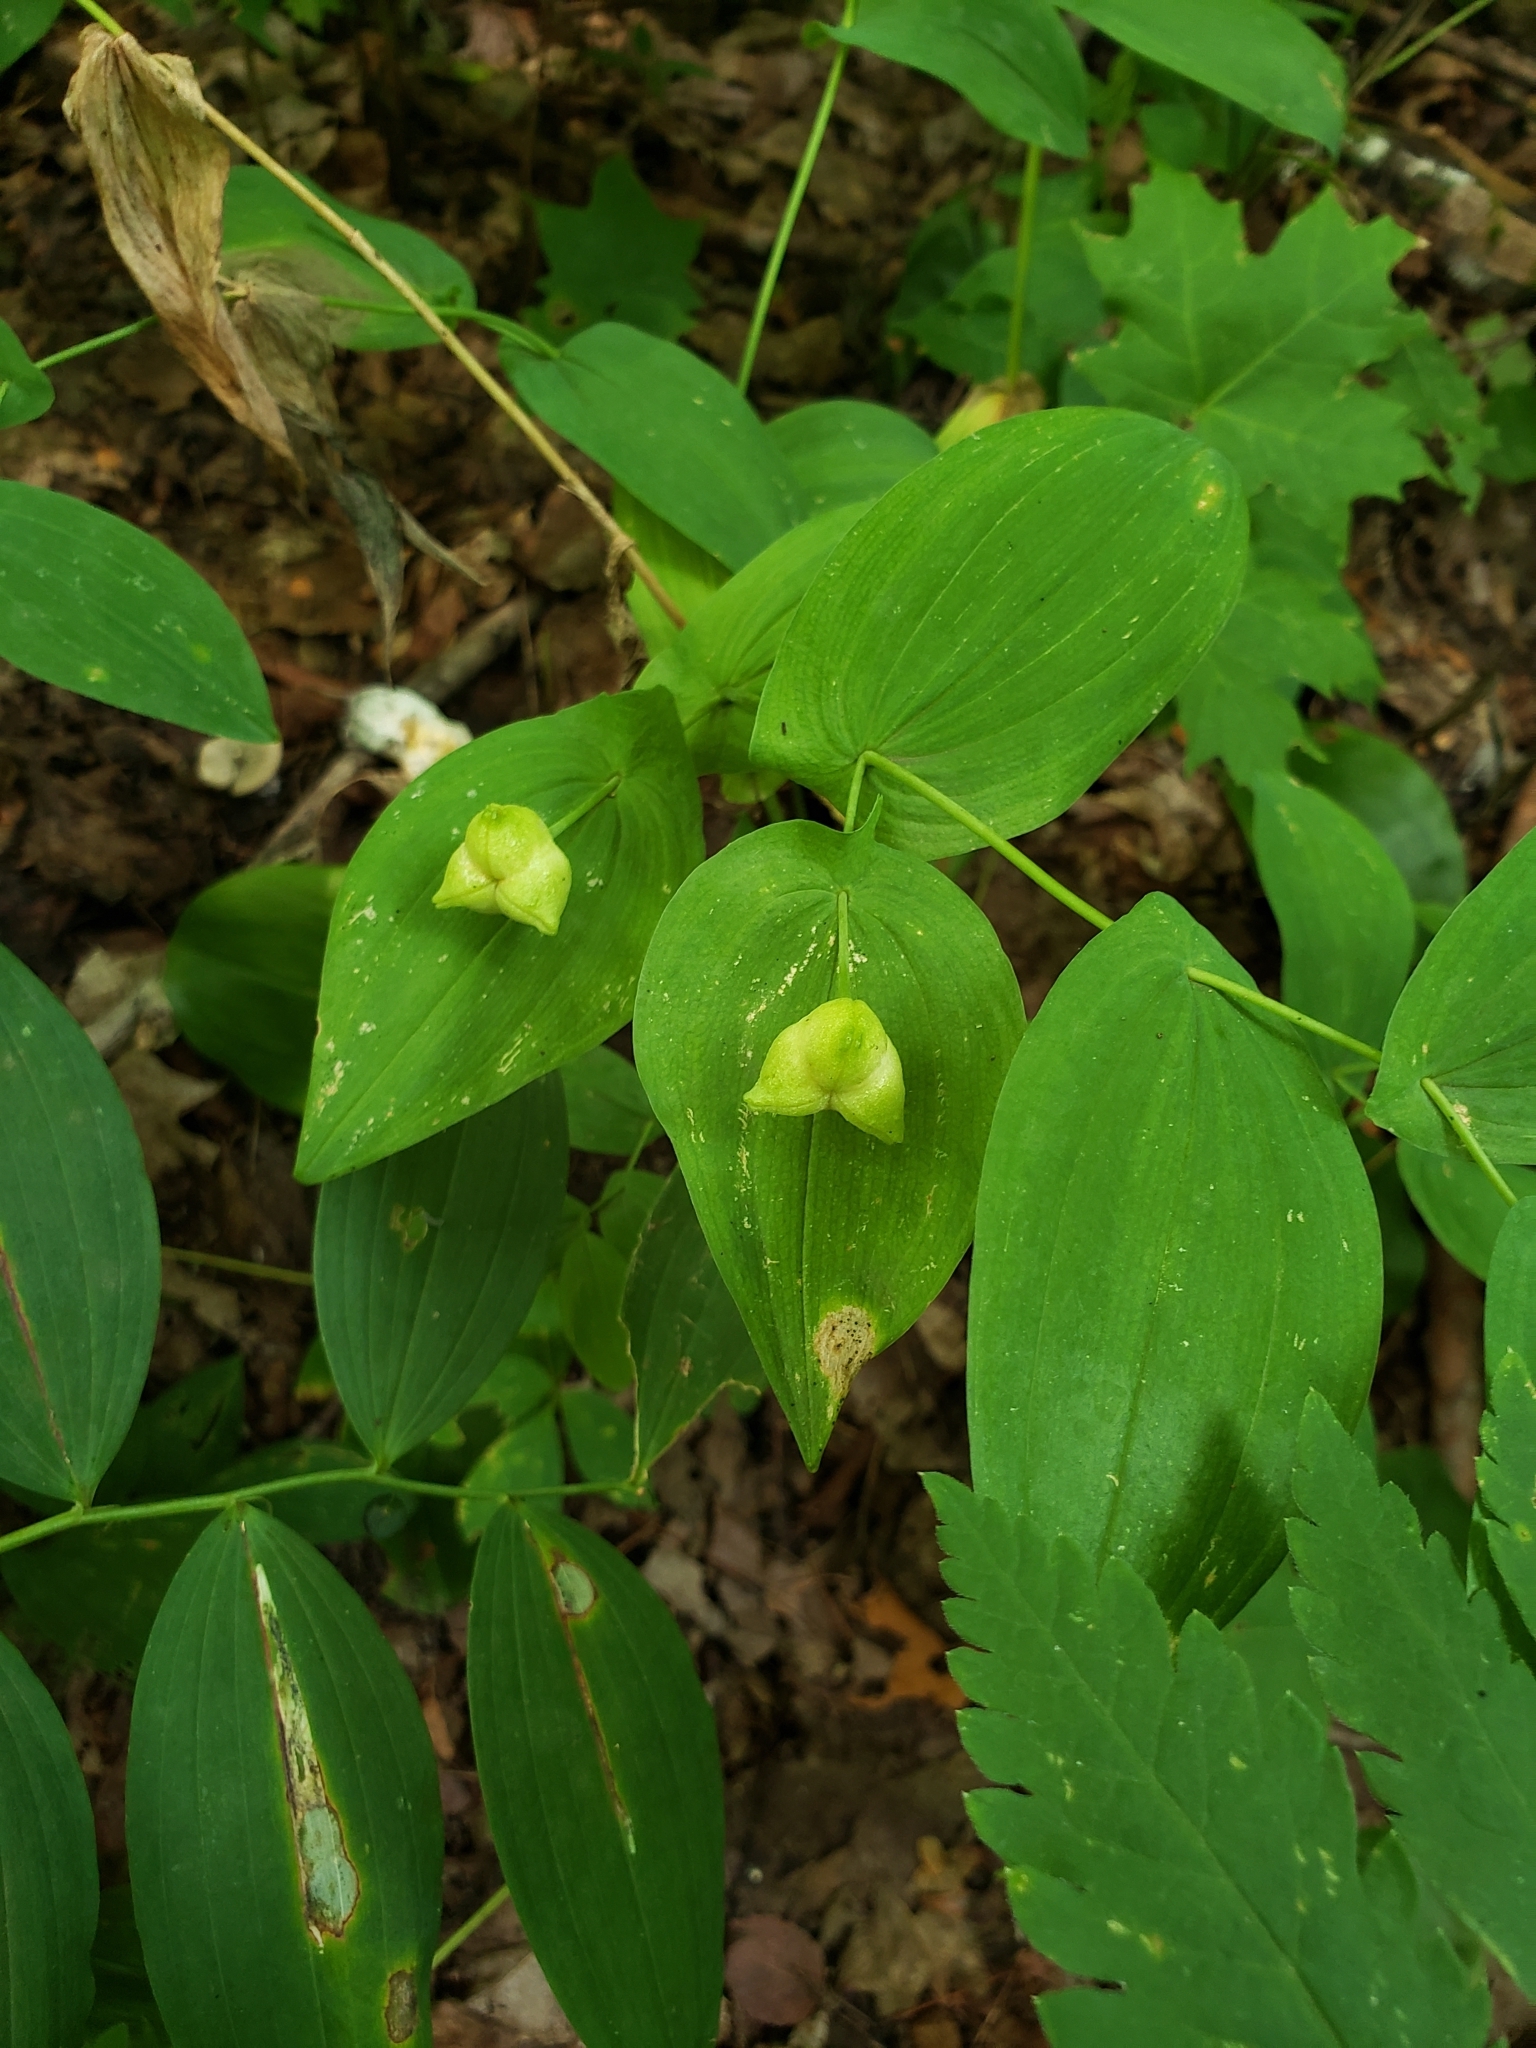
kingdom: Plantae
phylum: Tracheophyta
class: Liliopsida
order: Liliales
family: Colchicaceae
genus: Uvularia
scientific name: Uvularia grandiflora
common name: Bellwort
